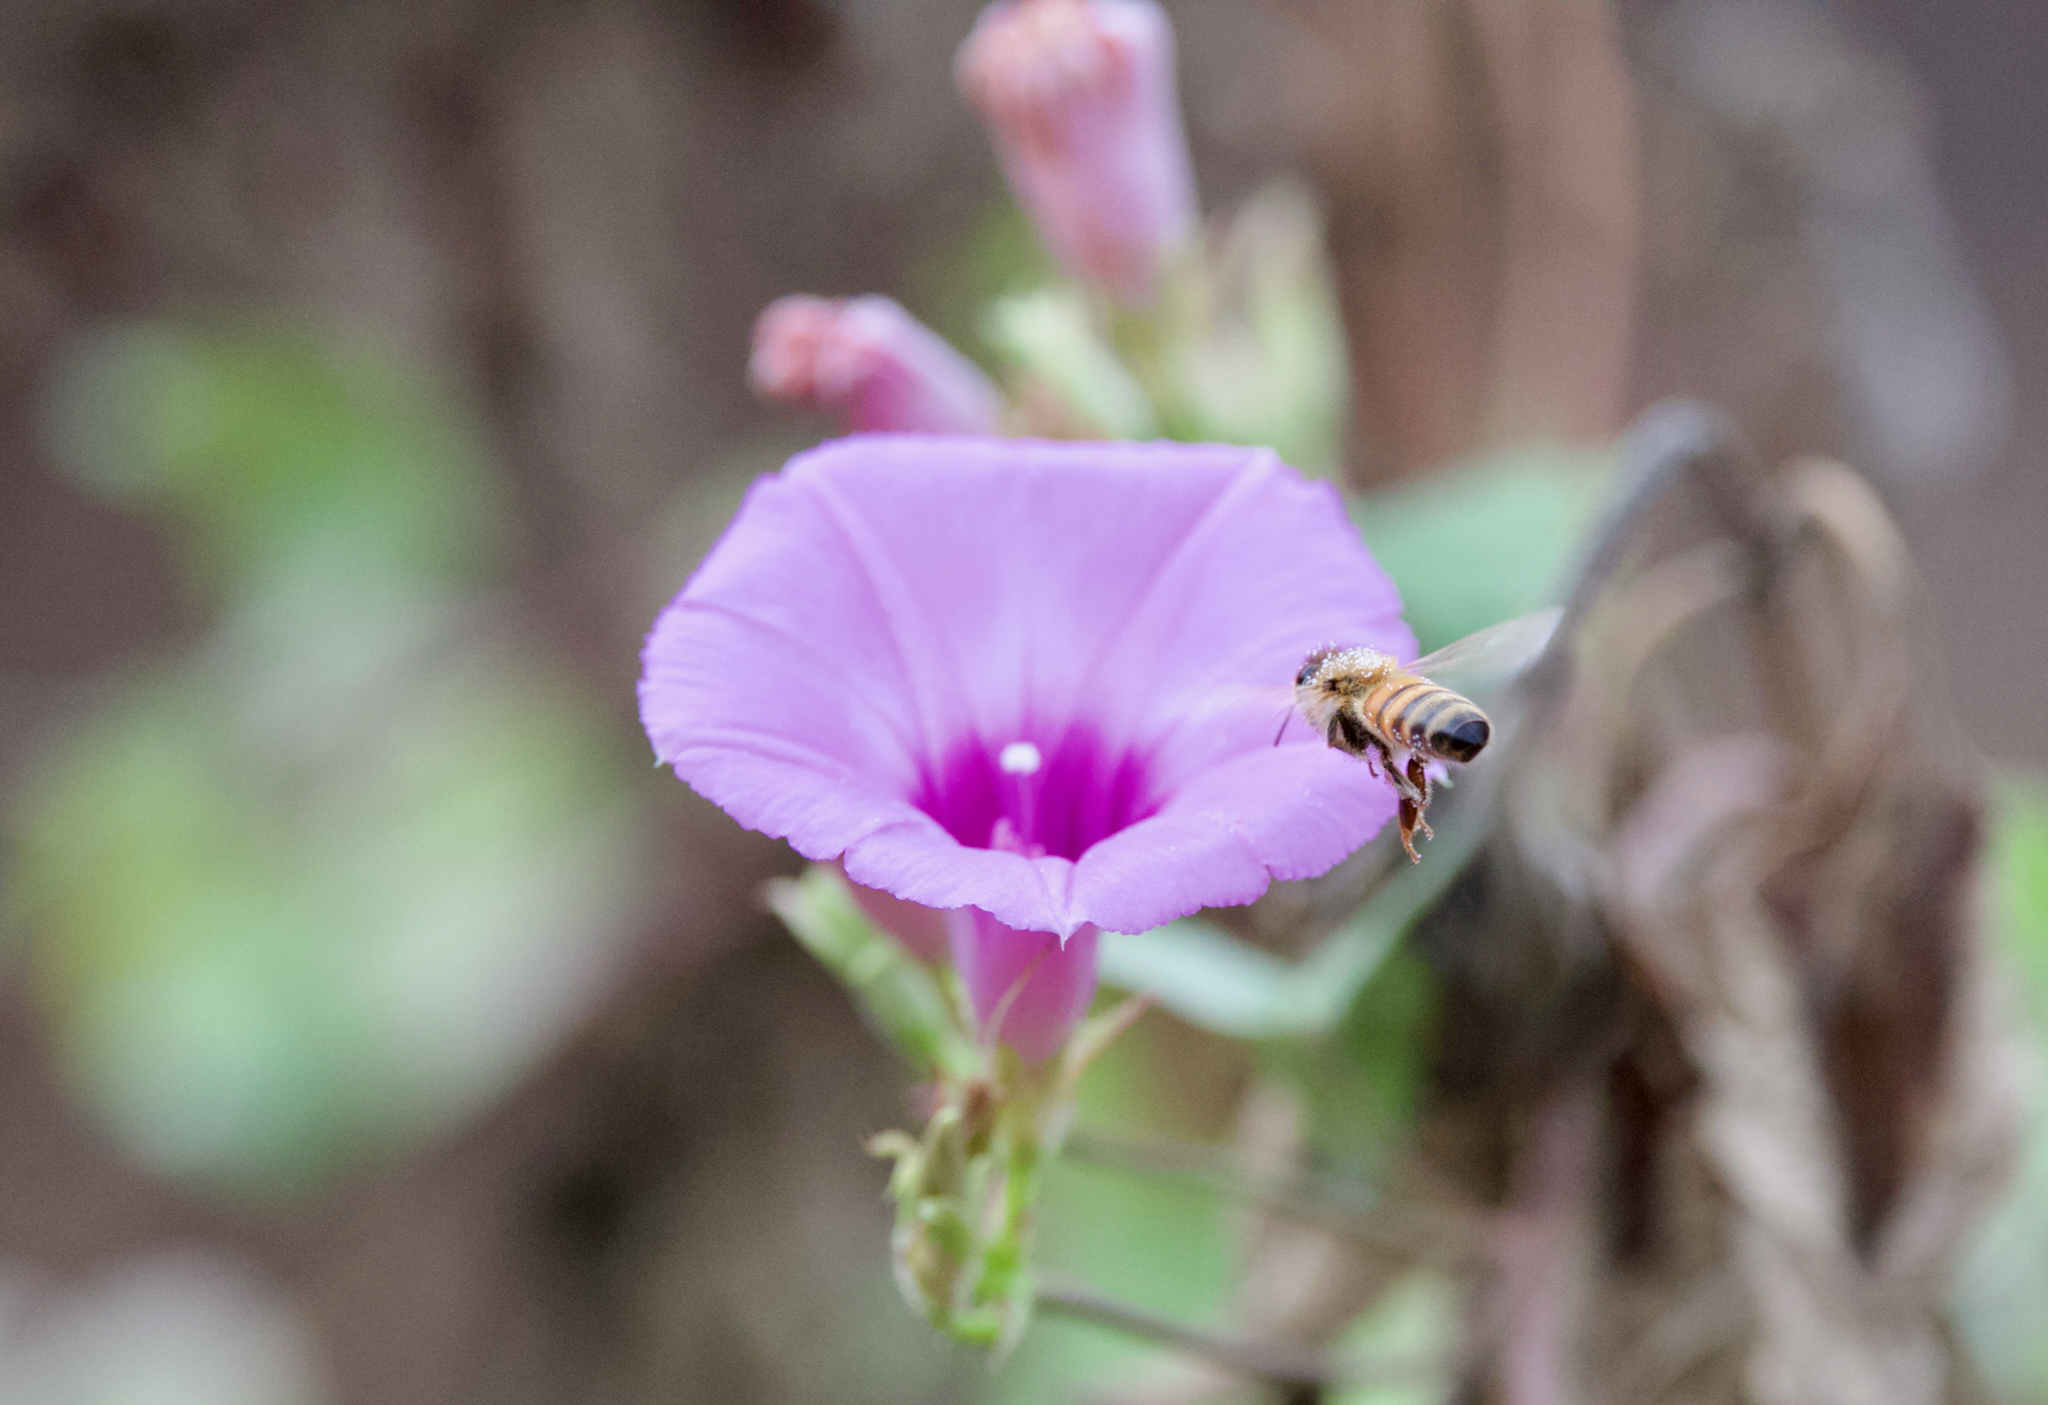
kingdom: Animalia
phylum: Arthropoda
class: Insecta
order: Hymenoptera
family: Apidae
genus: Apis
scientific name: Apis mellifera
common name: Honey bee
